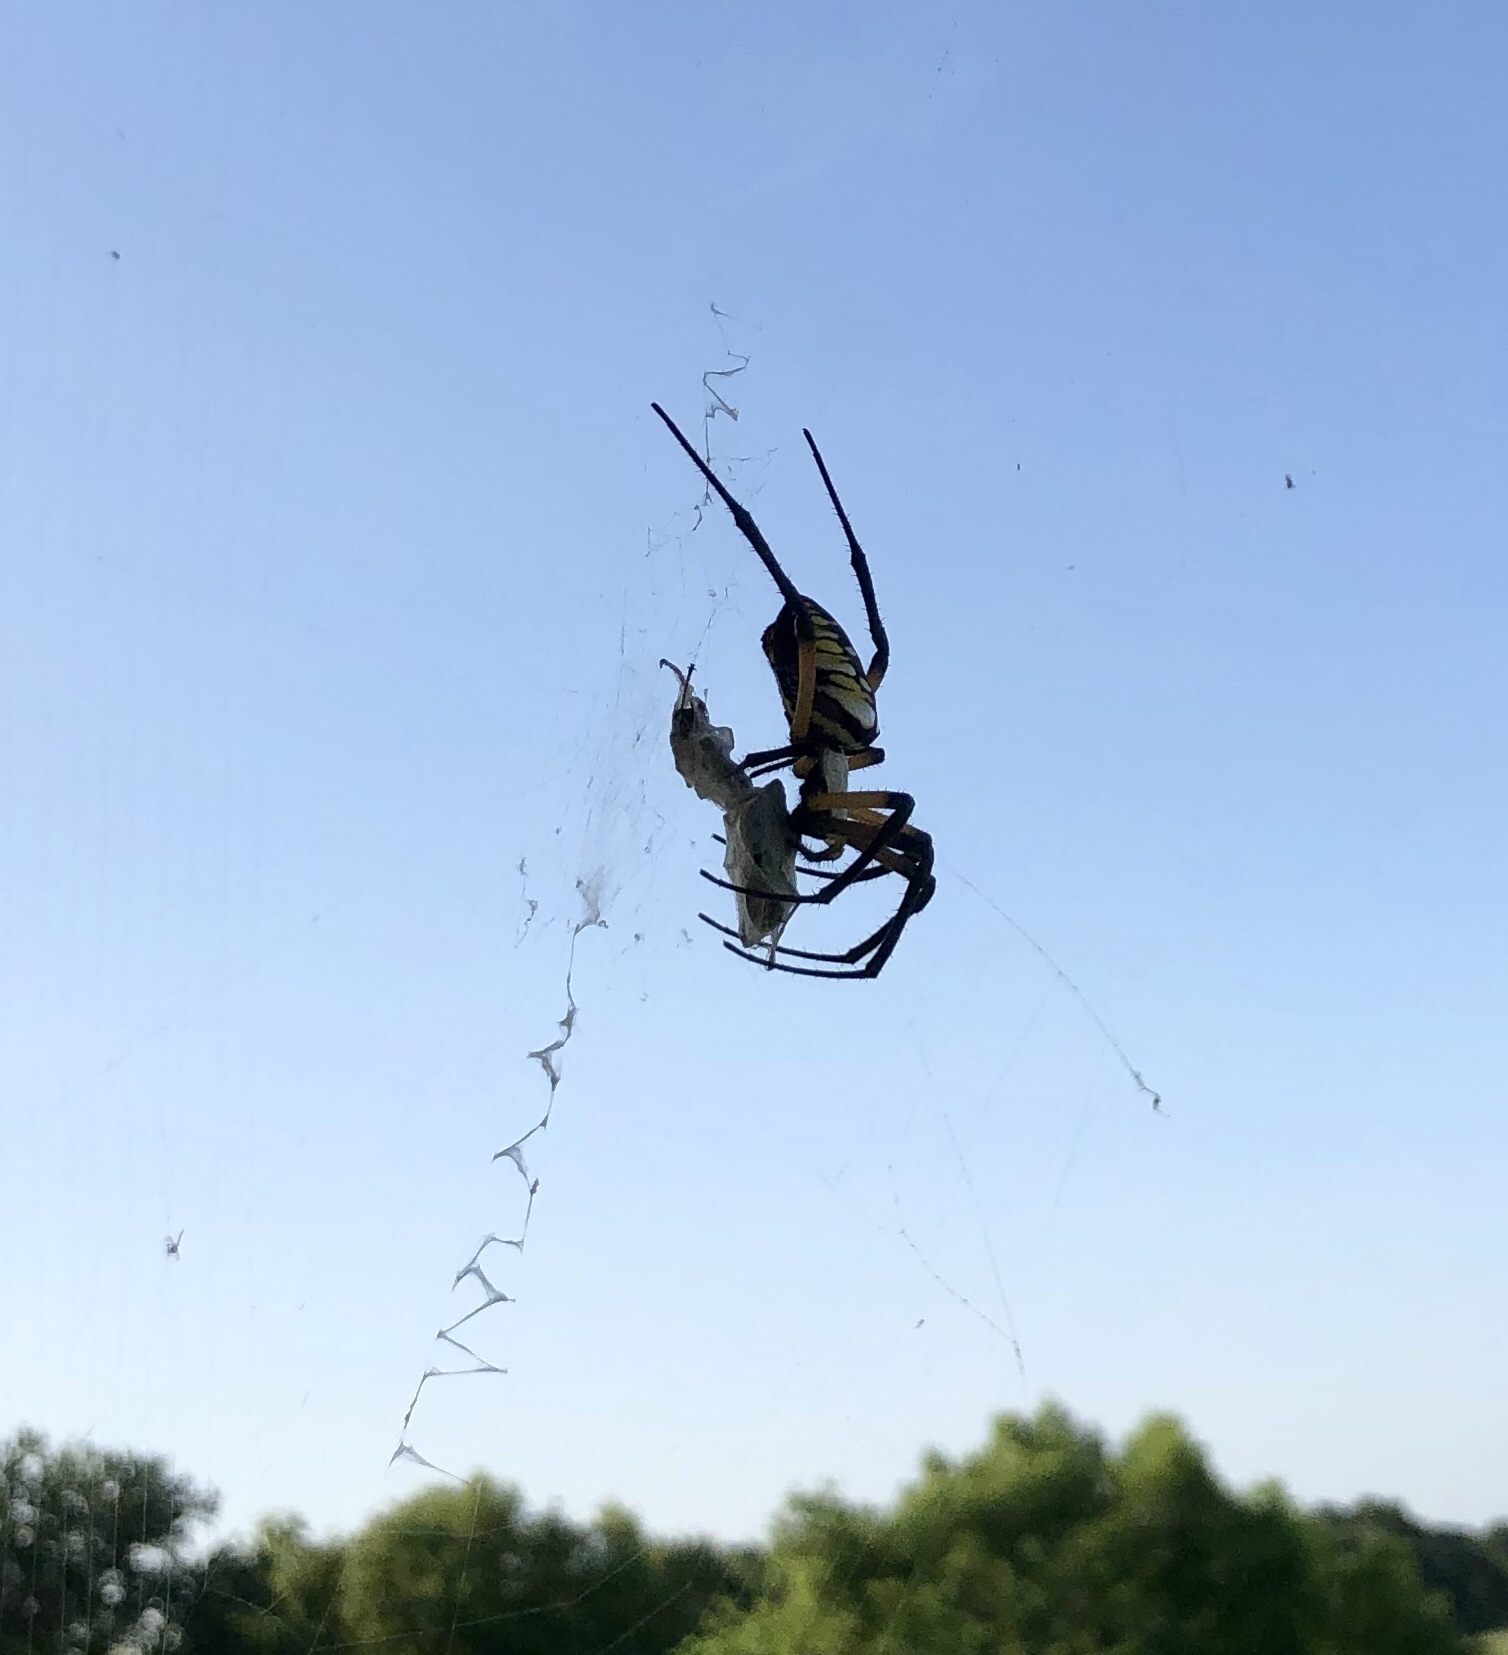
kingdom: Animalia
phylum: Arthropoda
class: Arachnida
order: Araneae
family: Araneidae
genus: Argiope
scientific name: Argiope aurantia
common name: Orb weavers
